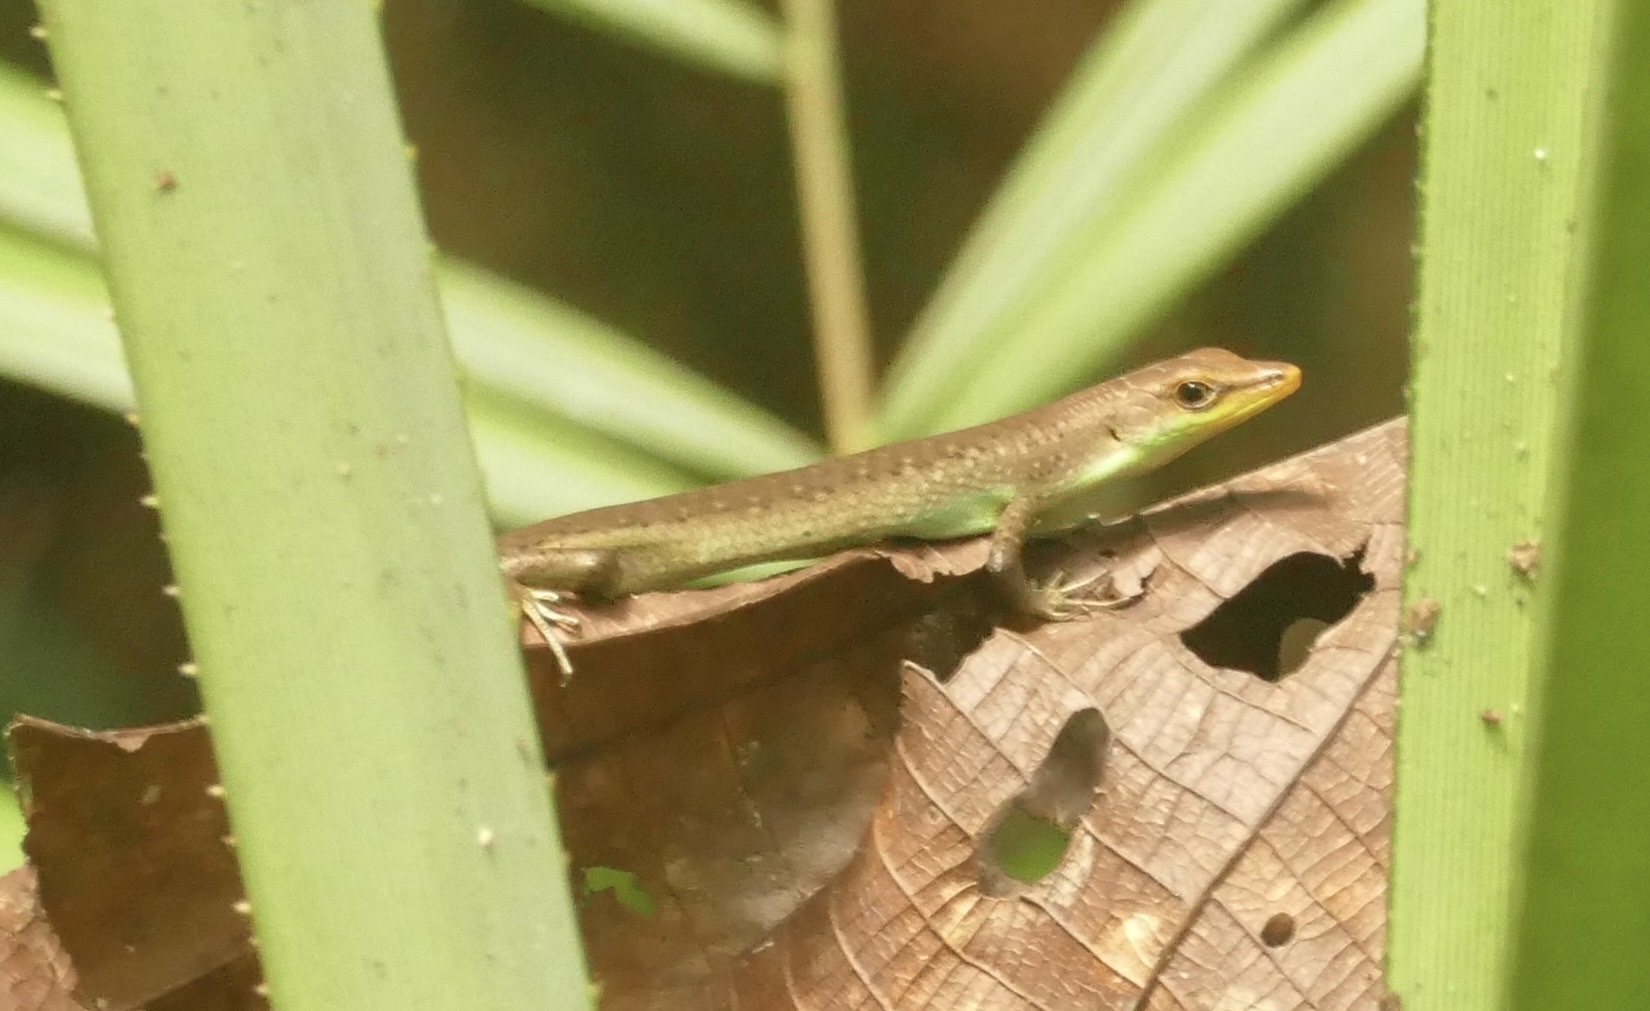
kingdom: Animalia
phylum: Chordata
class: Squamata
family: Scincidae
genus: Emoia
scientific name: Emoia longicauda
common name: Shrub whiptail-skink
